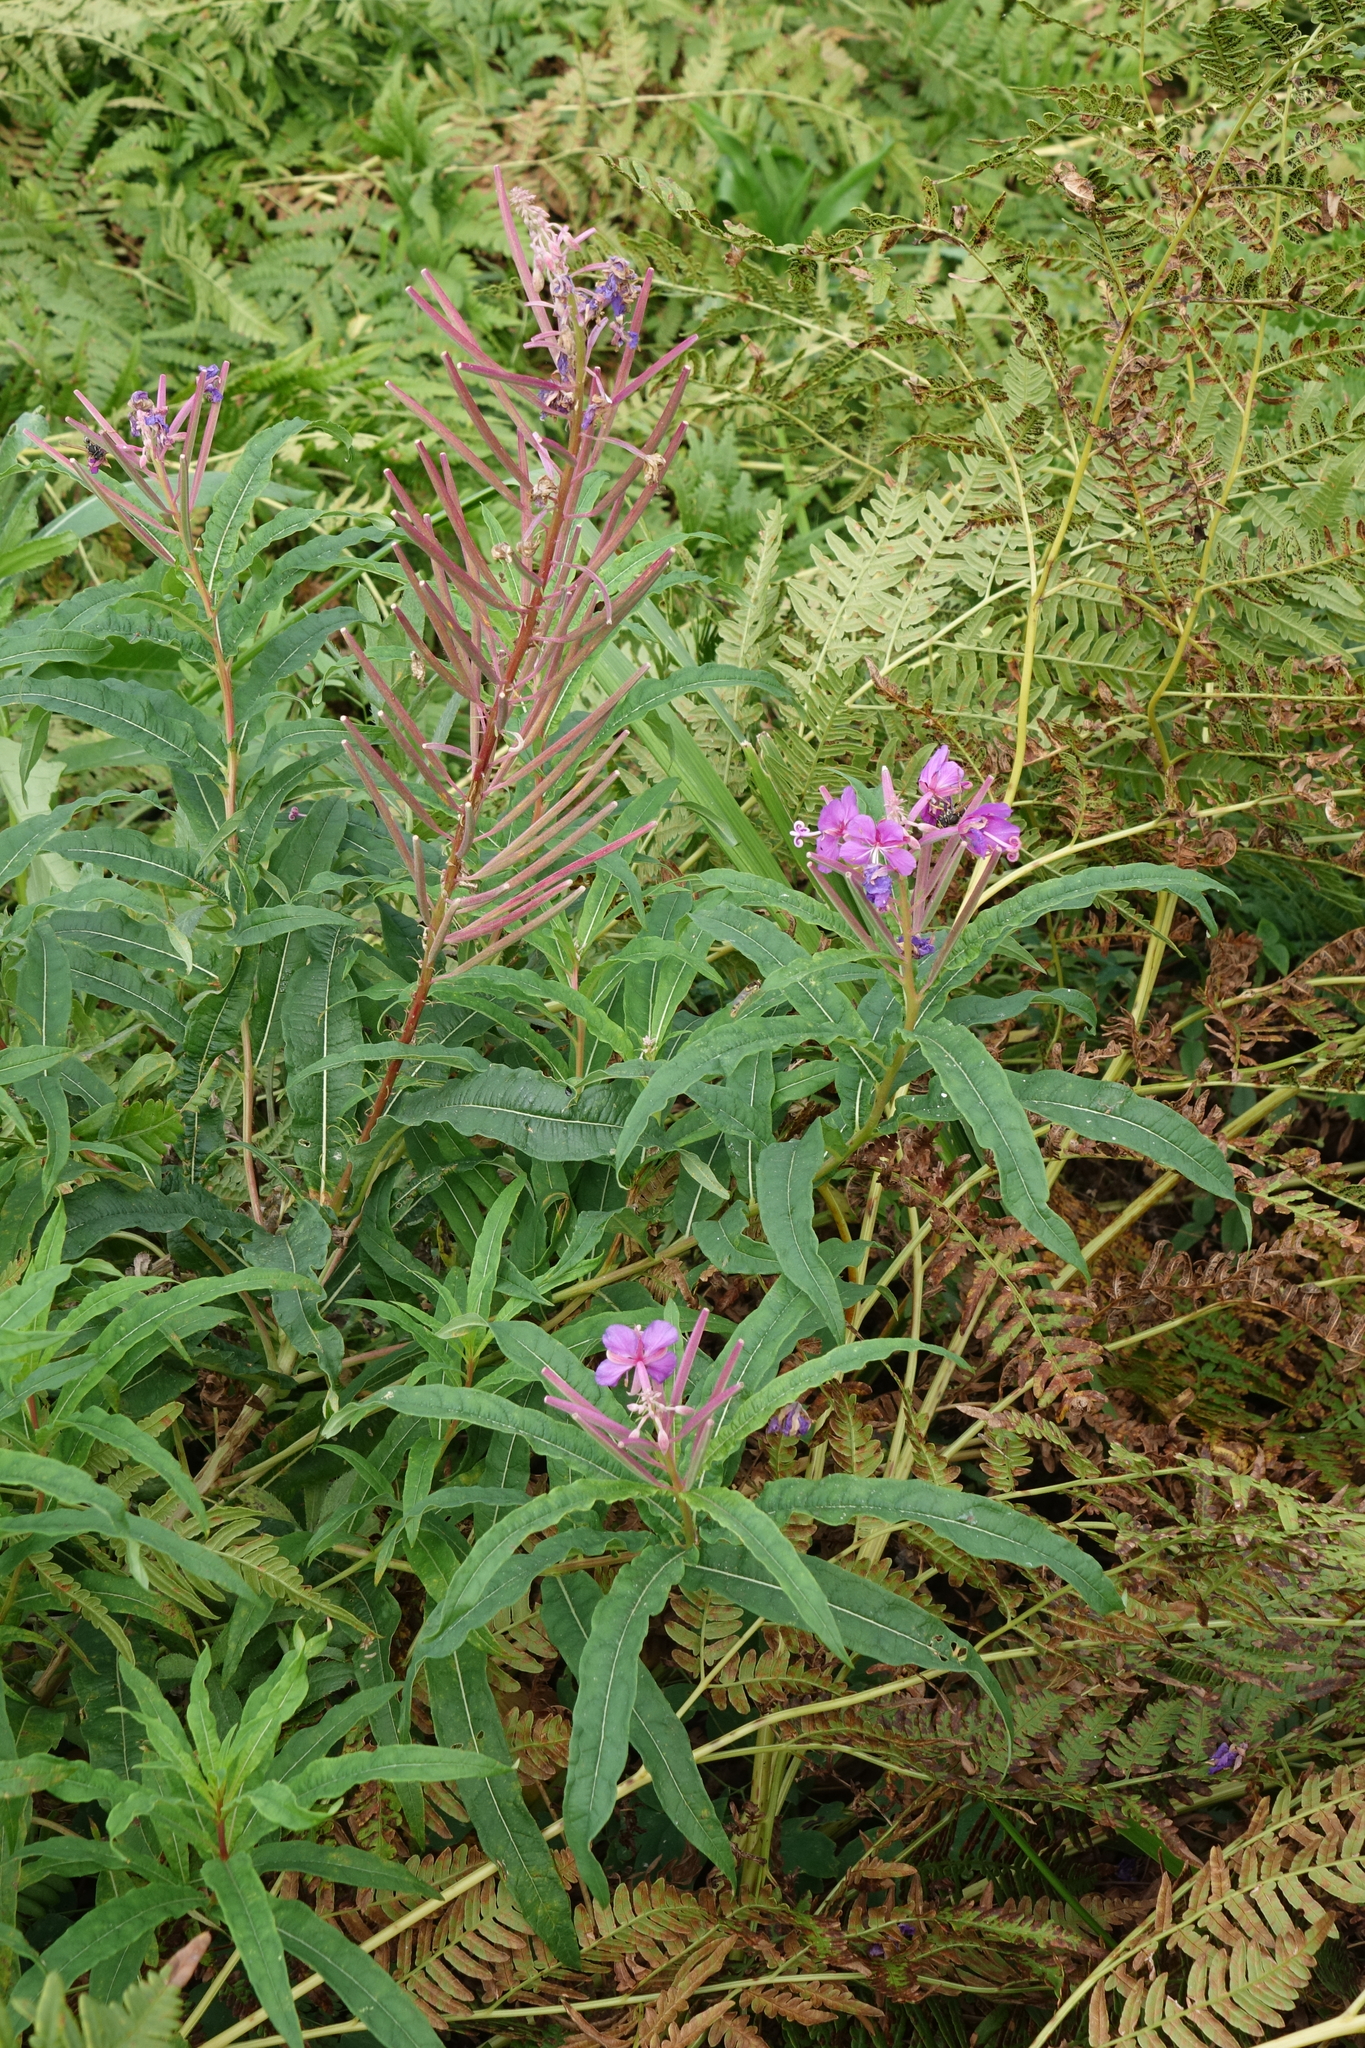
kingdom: Plantae
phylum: Tracheophyta
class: Magnoliopsida
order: Myrtales
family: Onagraceae
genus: Chamaenerion
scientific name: Chamaenerion angustifolium
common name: Fireweed
